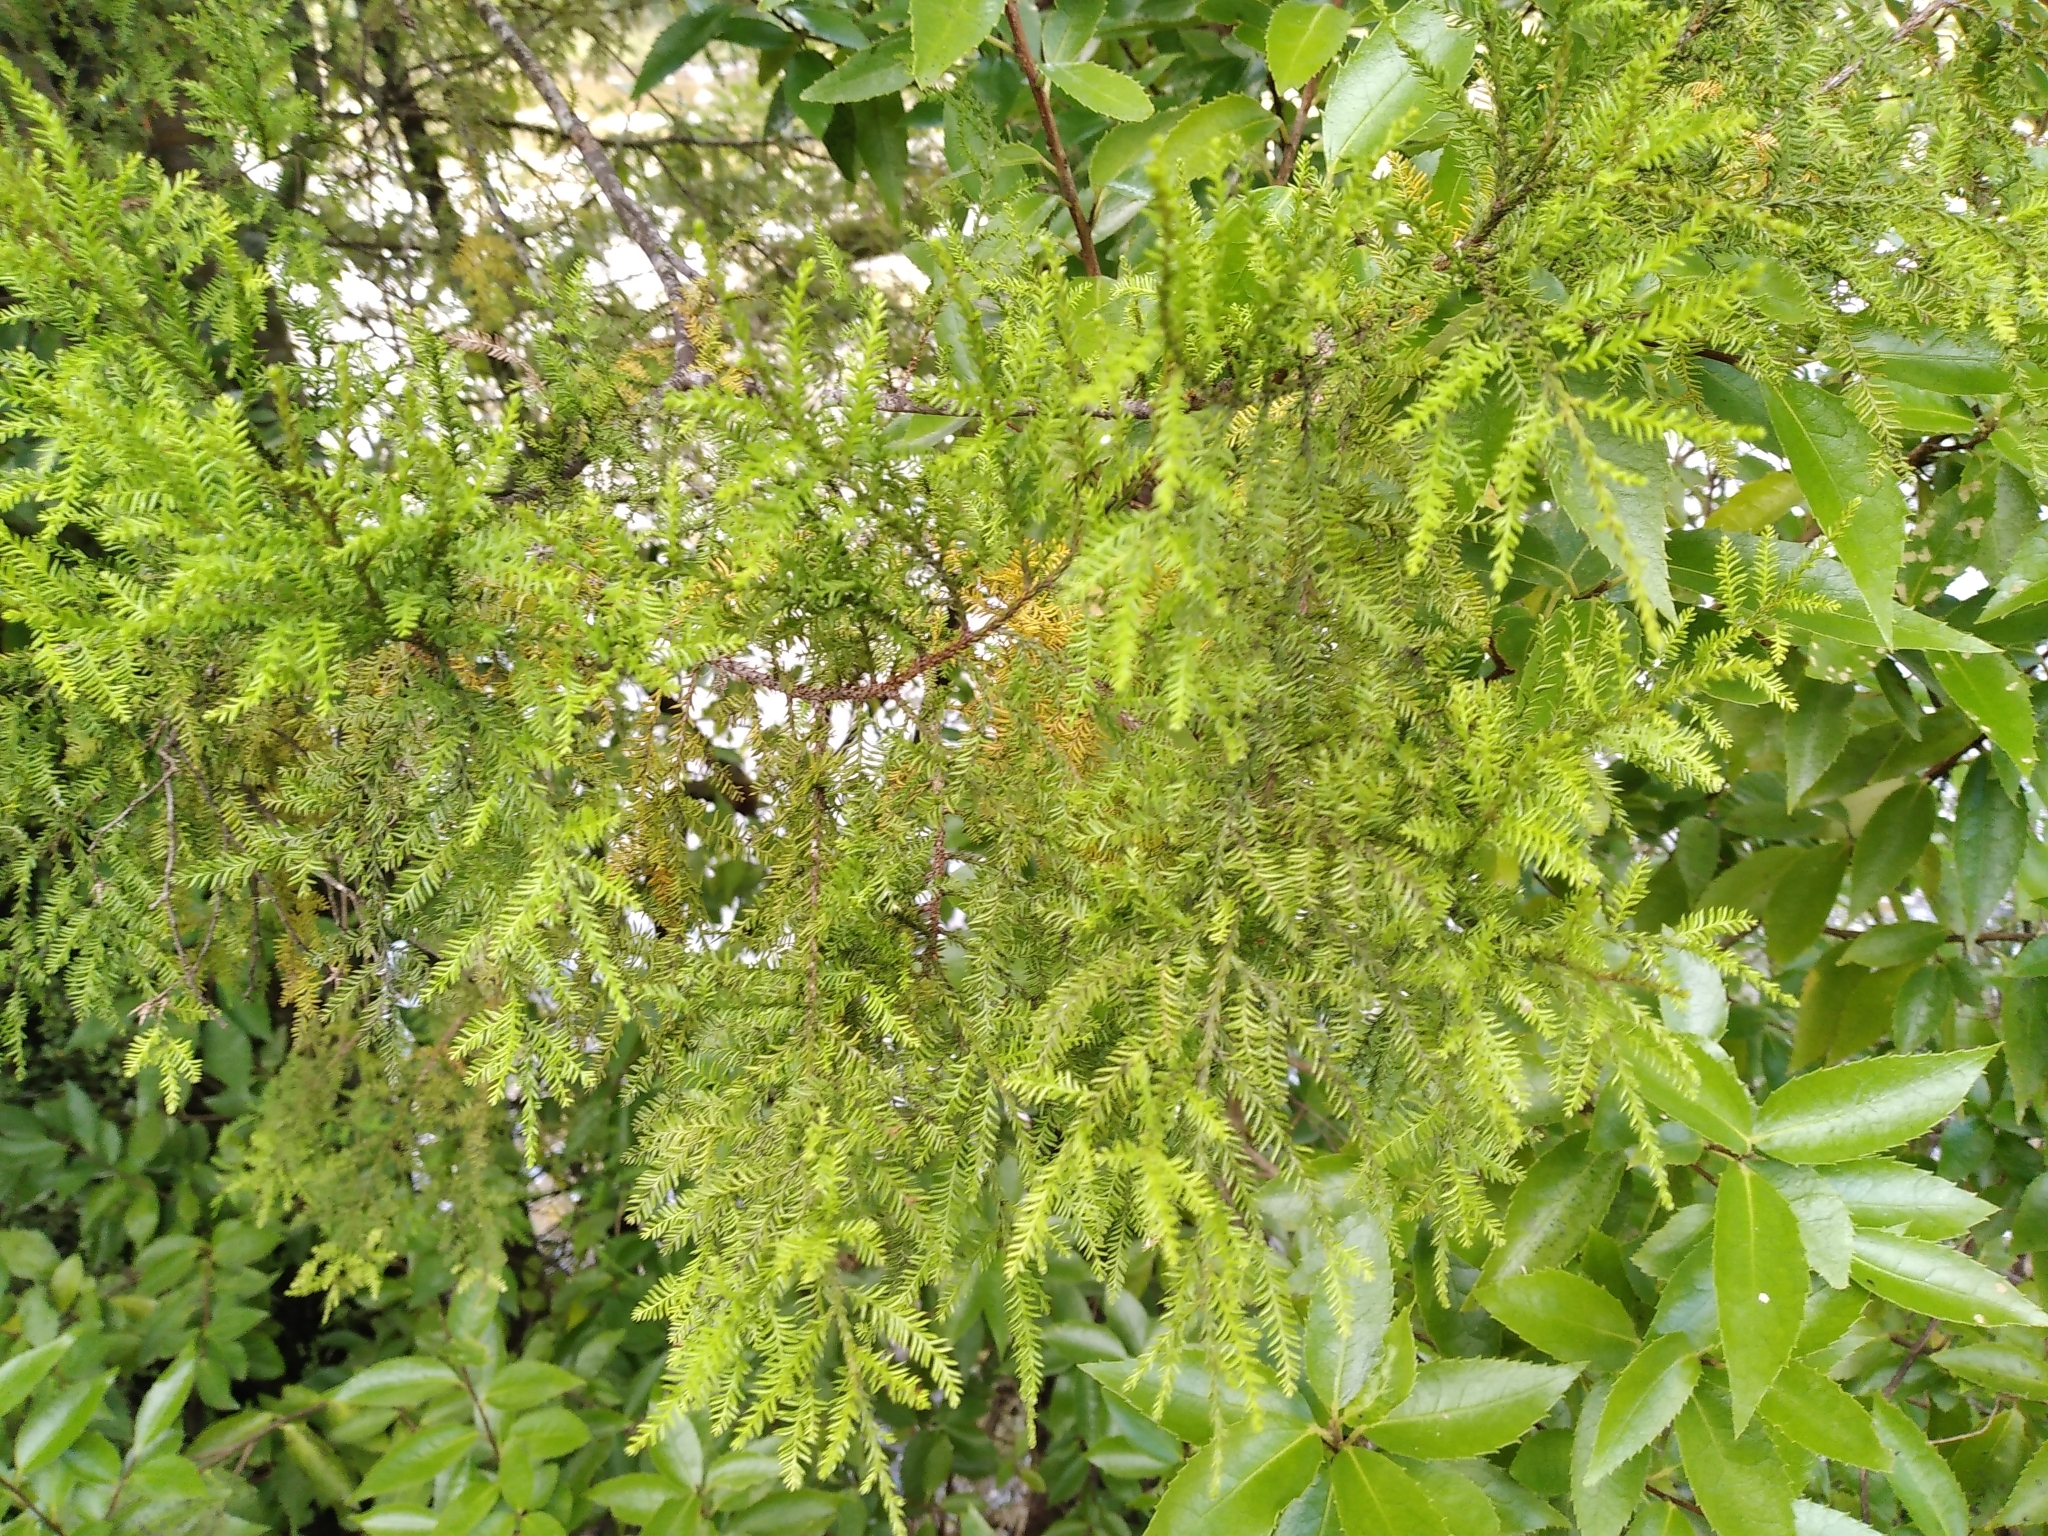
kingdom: Plantae
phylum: Tracheophyta
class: Pinopsida
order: Pinales
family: Podocarpaceae
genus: Dacrycarpus
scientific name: Dacrycarpus dacrydioides
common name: White pine
